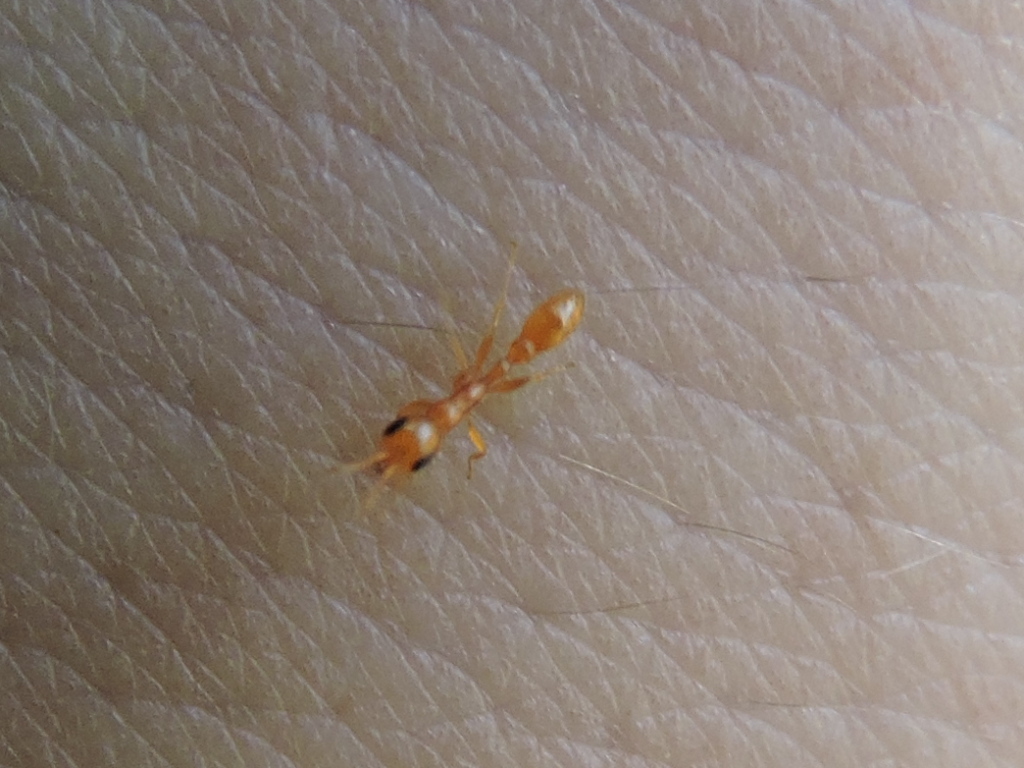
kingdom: Animalia
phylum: Arthropoda
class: Insecta
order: Hymenoptera
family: Formicidae
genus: Pseudomyrmex
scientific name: Pseudomyrmex pallidus
